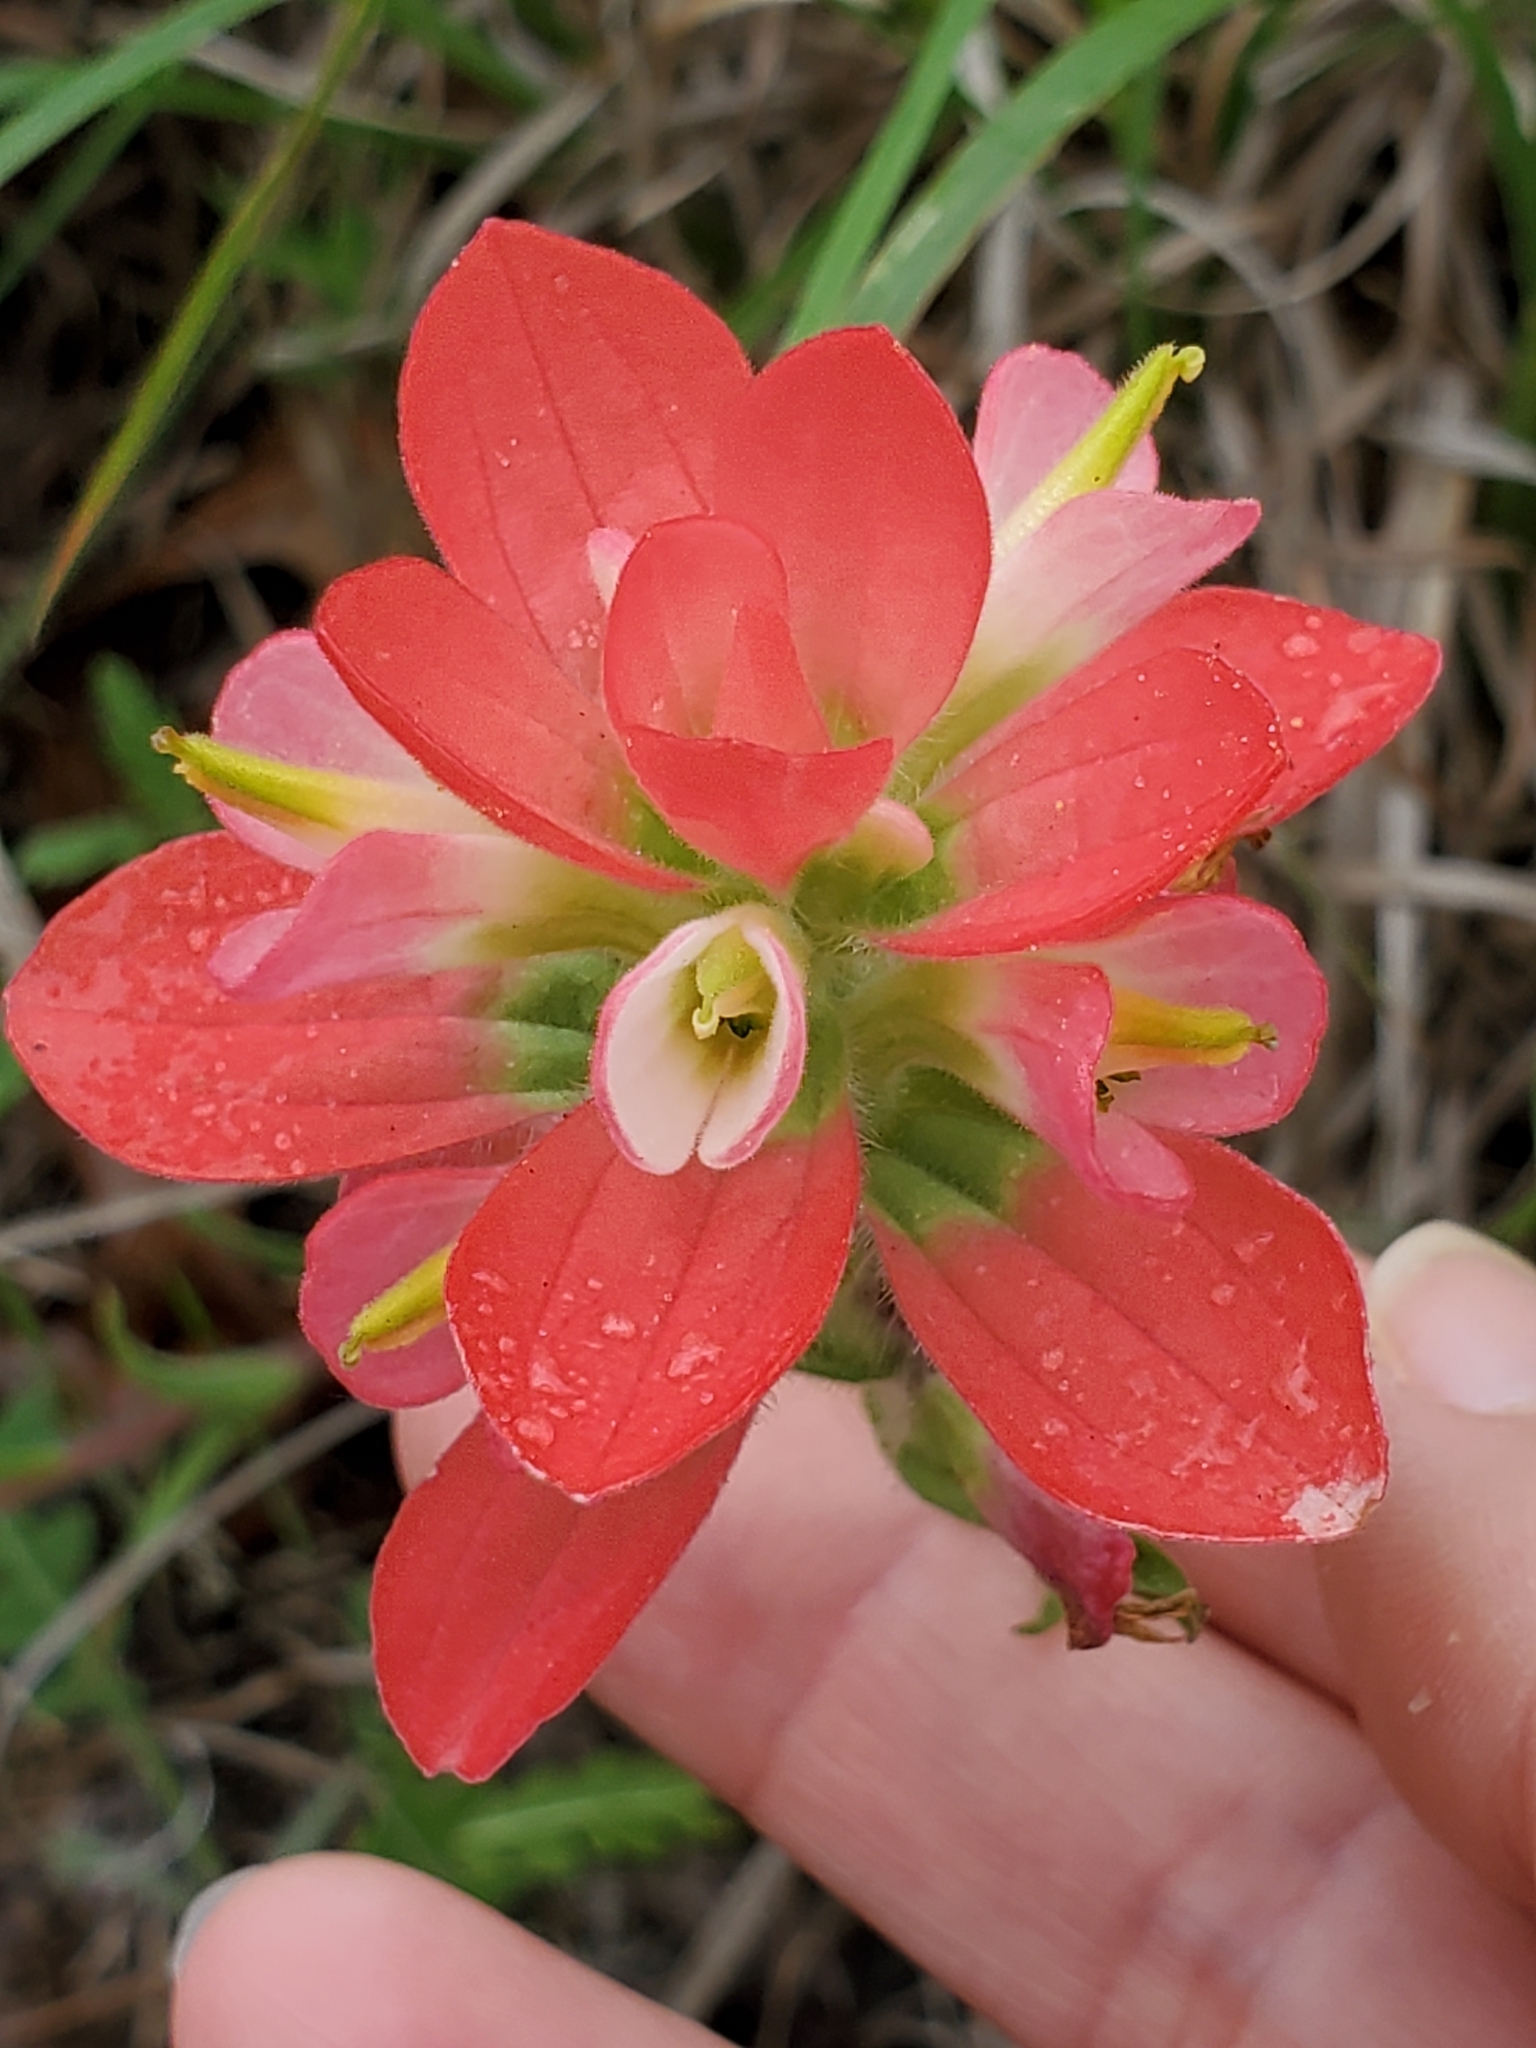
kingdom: Plantae
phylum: Tracheophyta
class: Magnoliopsida
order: Lamiales
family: Orobanchaceae
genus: Castilleja
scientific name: Castilleja indivisa
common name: Texas paintbrush
